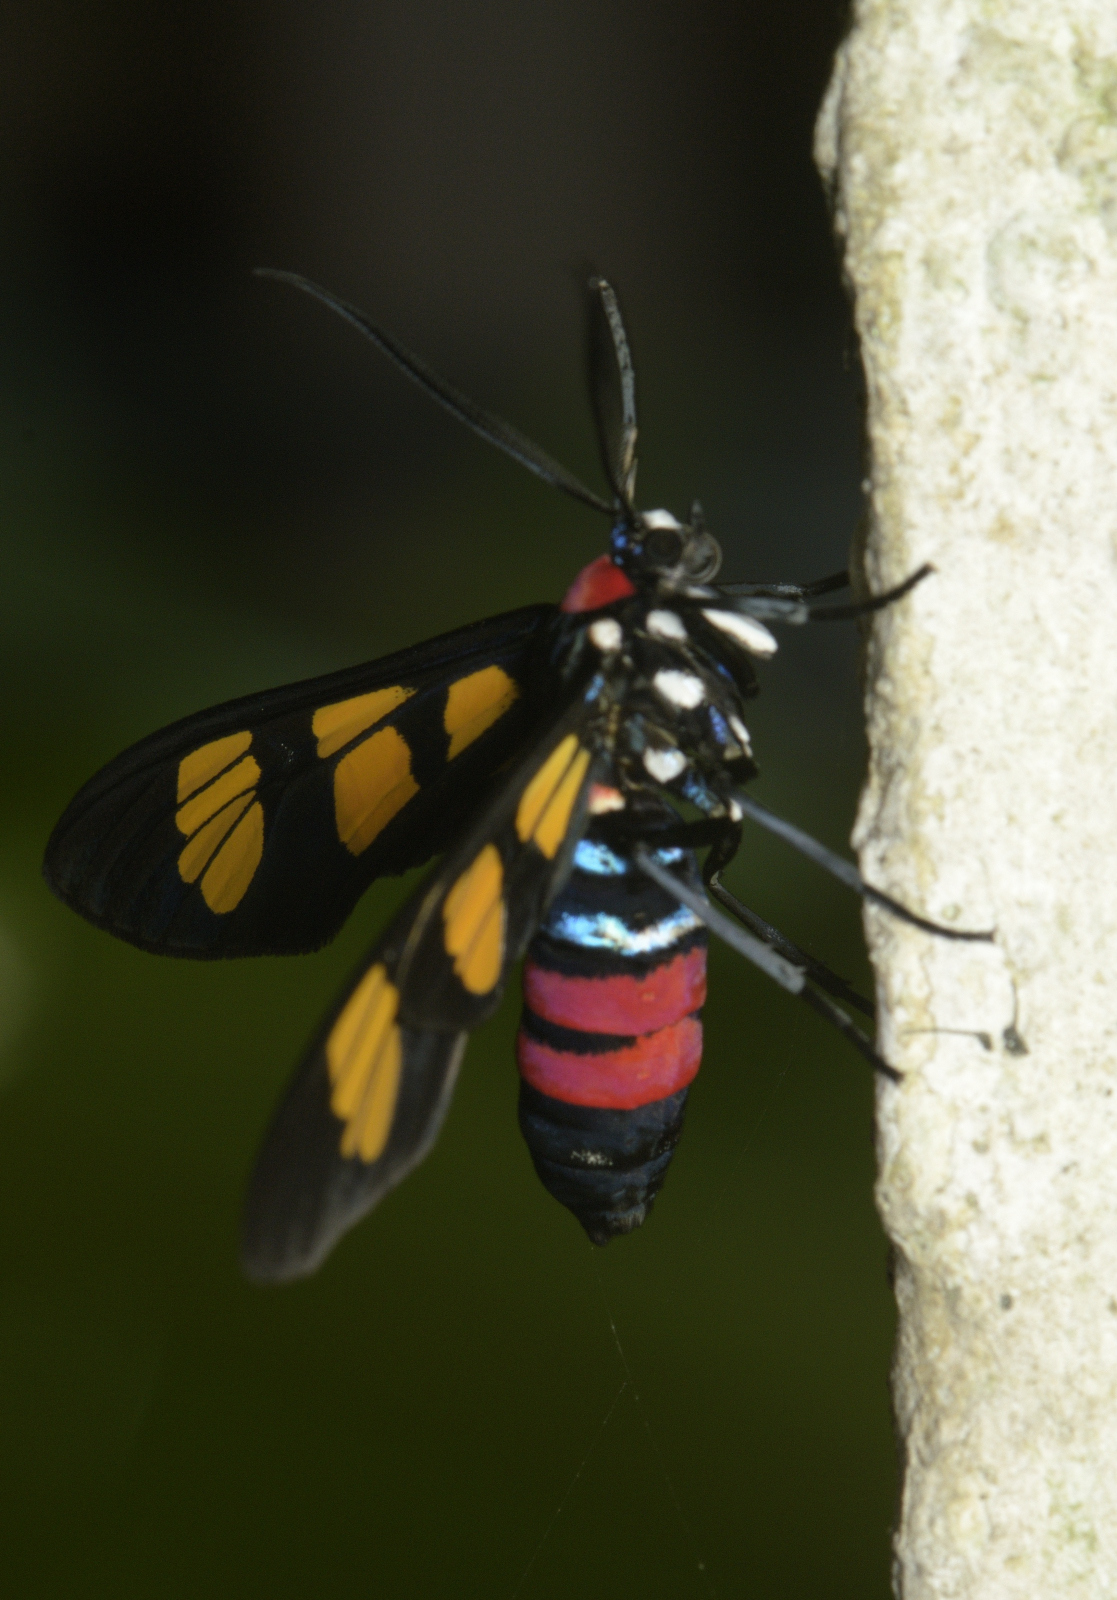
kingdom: Animalia
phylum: Arthropoda
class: Insecta
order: Lepidoptera
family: Erebidae
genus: Euchromia
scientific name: Euchromia polymena
